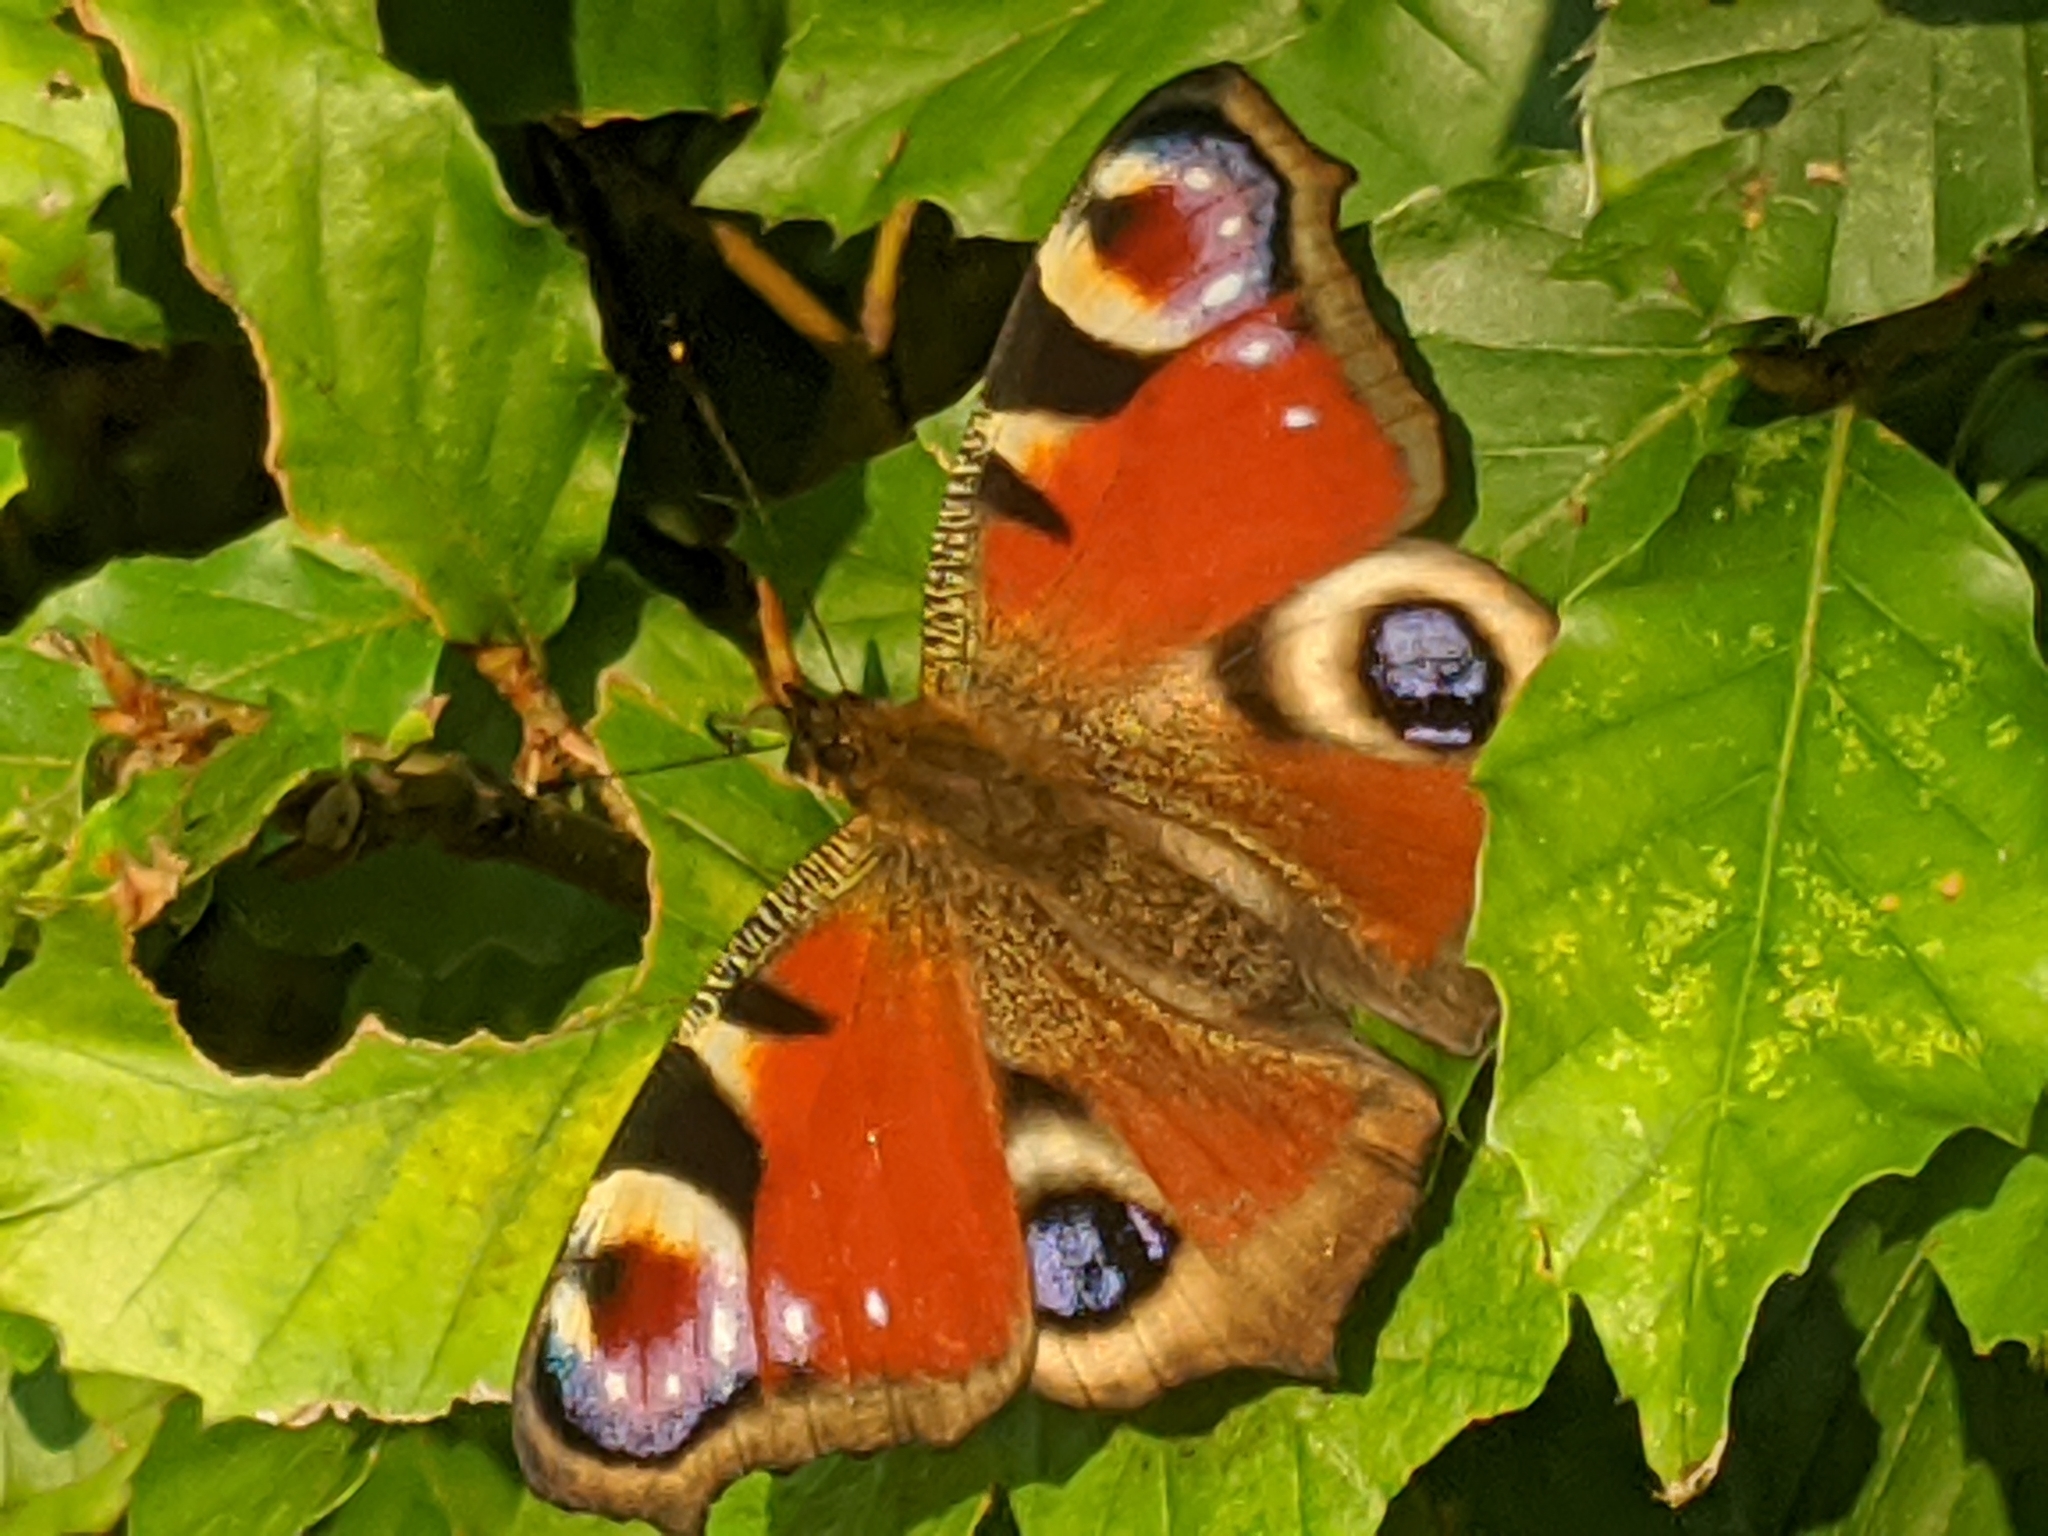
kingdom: Animalia
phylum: Arthropoda
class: Insecta
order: Lepidoptera
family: Nymphalidae
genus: Aglais
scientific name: Aglais io
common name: Peacock
